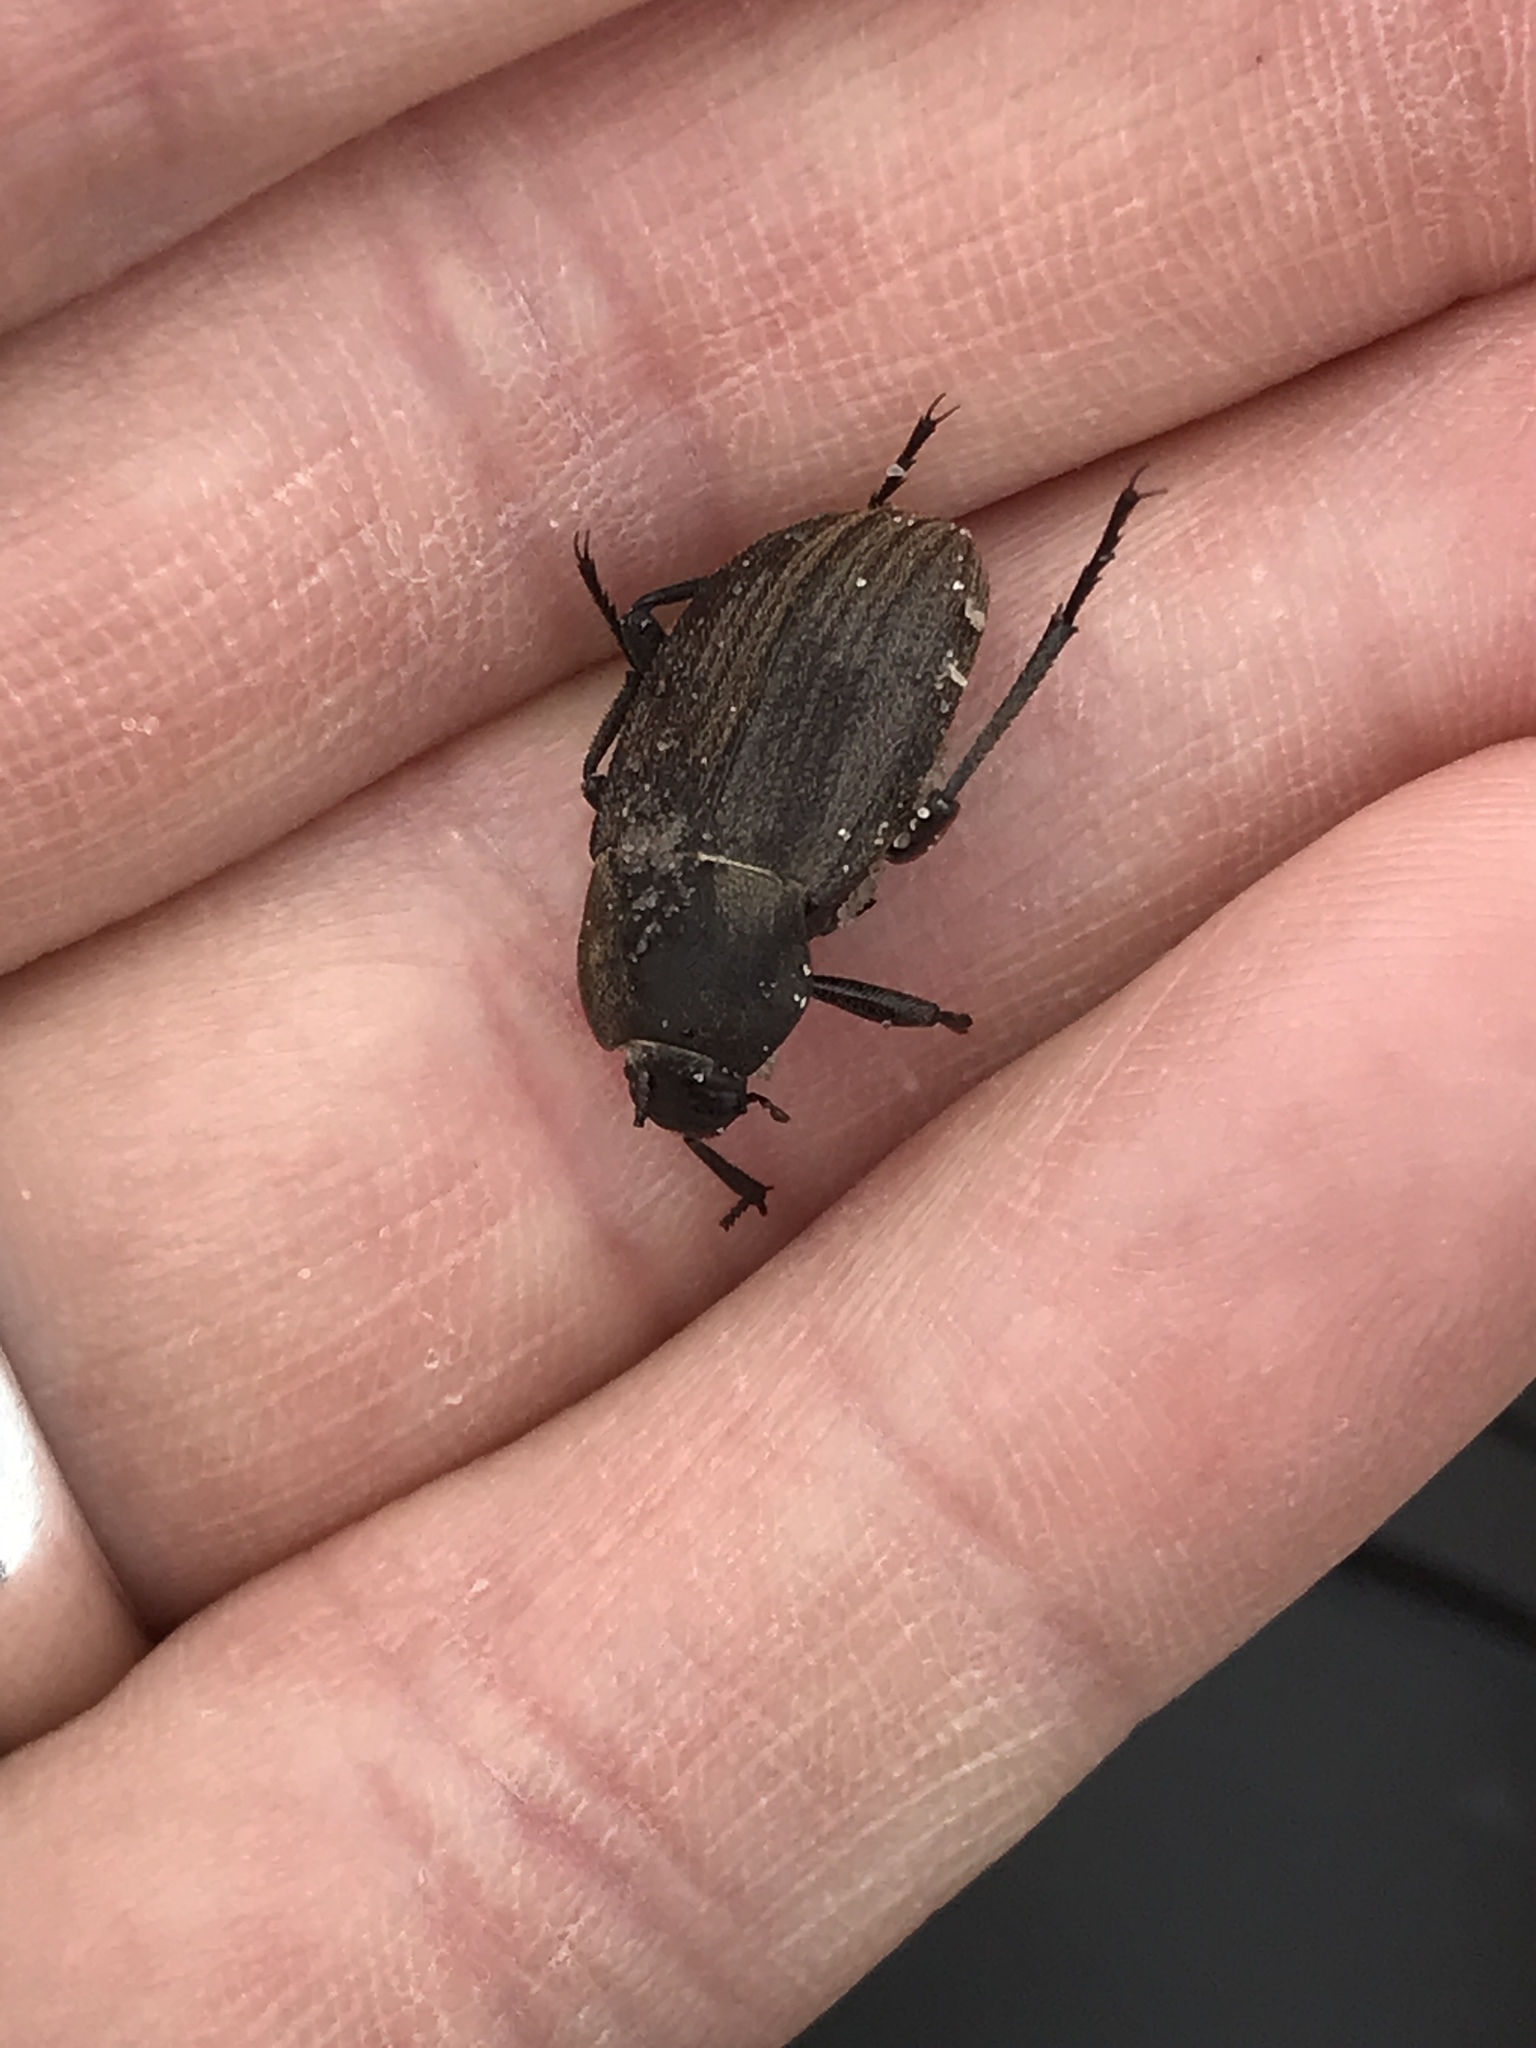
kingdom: Animalia
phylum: Arthropoda
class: Insecta
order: Coleoptera
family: Tenebrionidae
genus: Eleodes
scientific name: Eleodes tricostata
